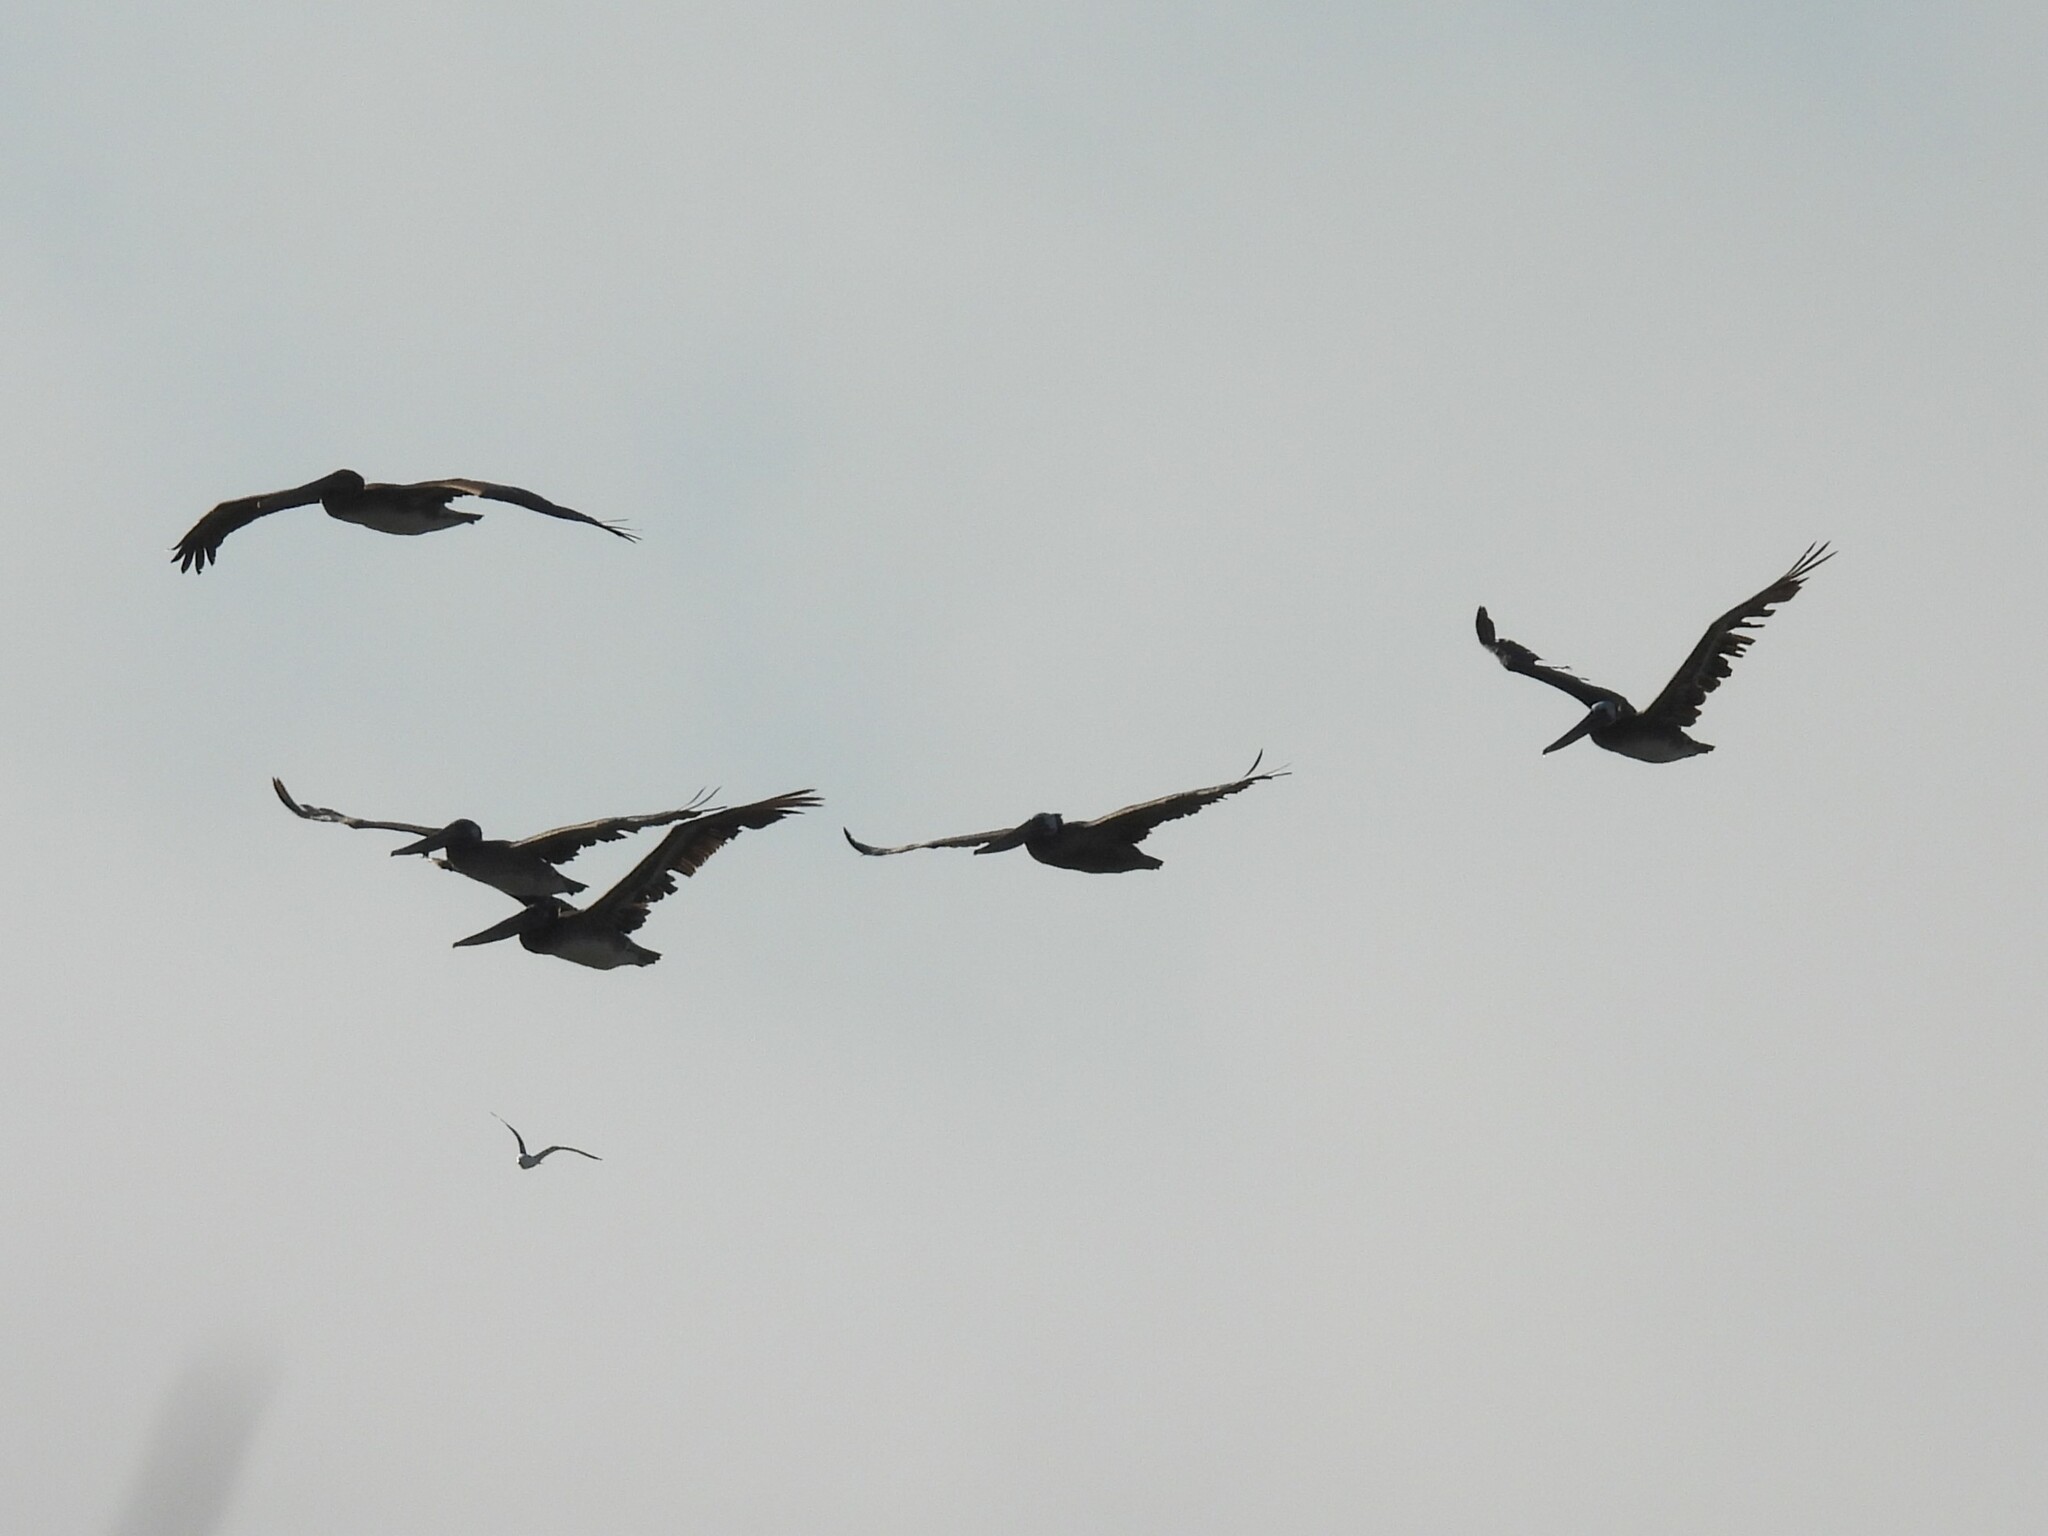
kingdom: Animalia
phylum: Chordata
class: Aves
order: Pelecaniformes
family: Pelecanidae
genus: Pelecanus
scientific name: Pelecanus occidentalis
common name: Brown pelican
